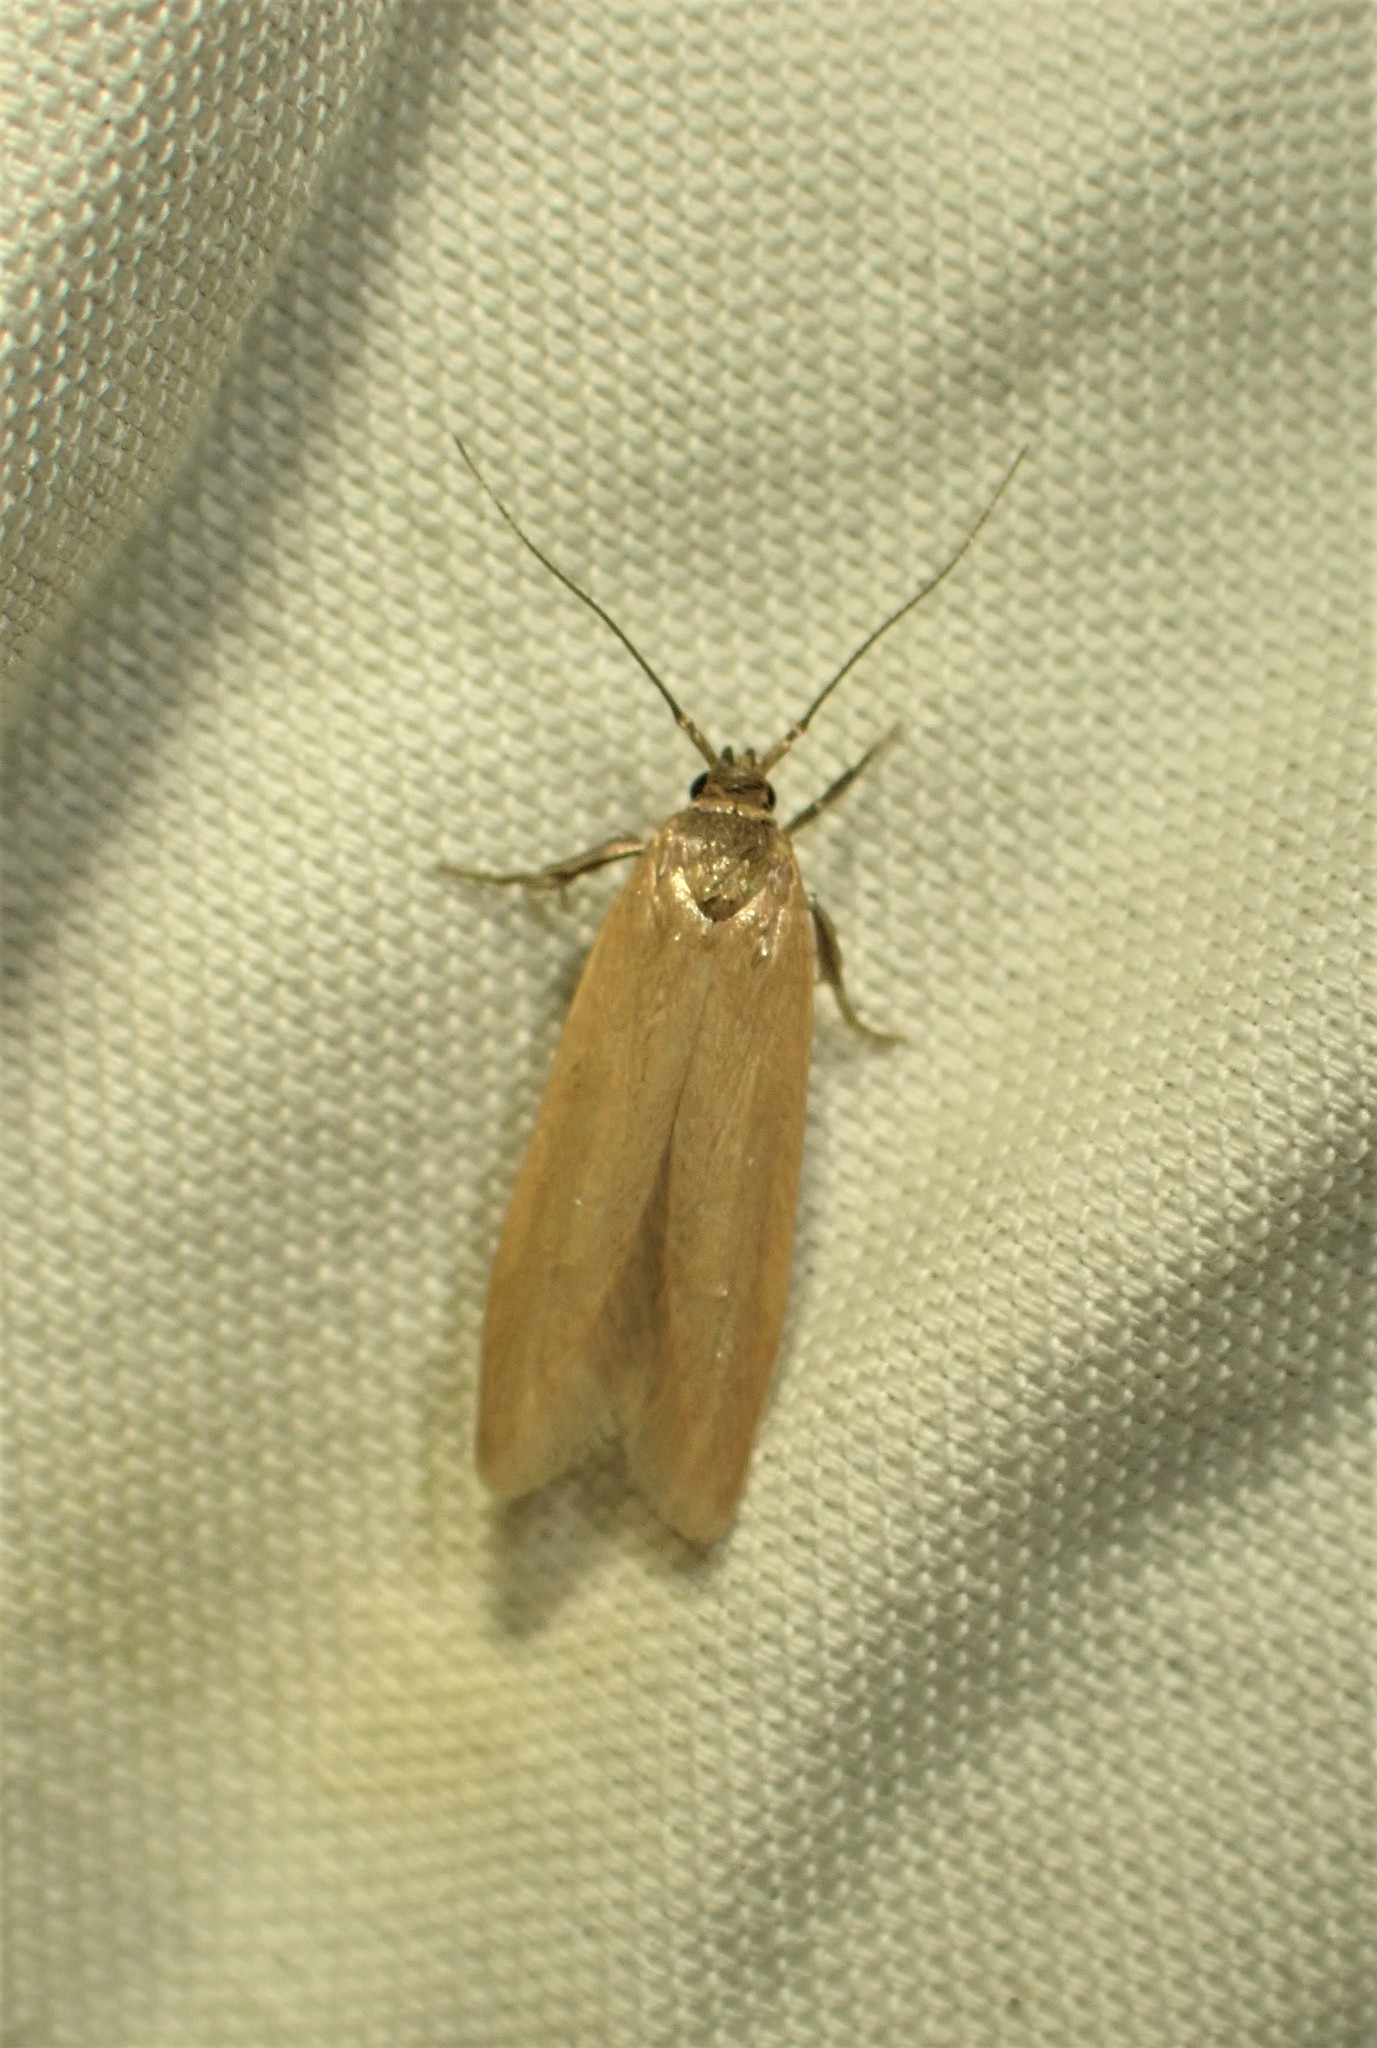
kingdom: Animalia
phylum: Arthropoda
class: Insecta
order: Lepidoptera
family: Blastobasidae
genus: Holcocerina
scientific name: Holcocerina immaculella
